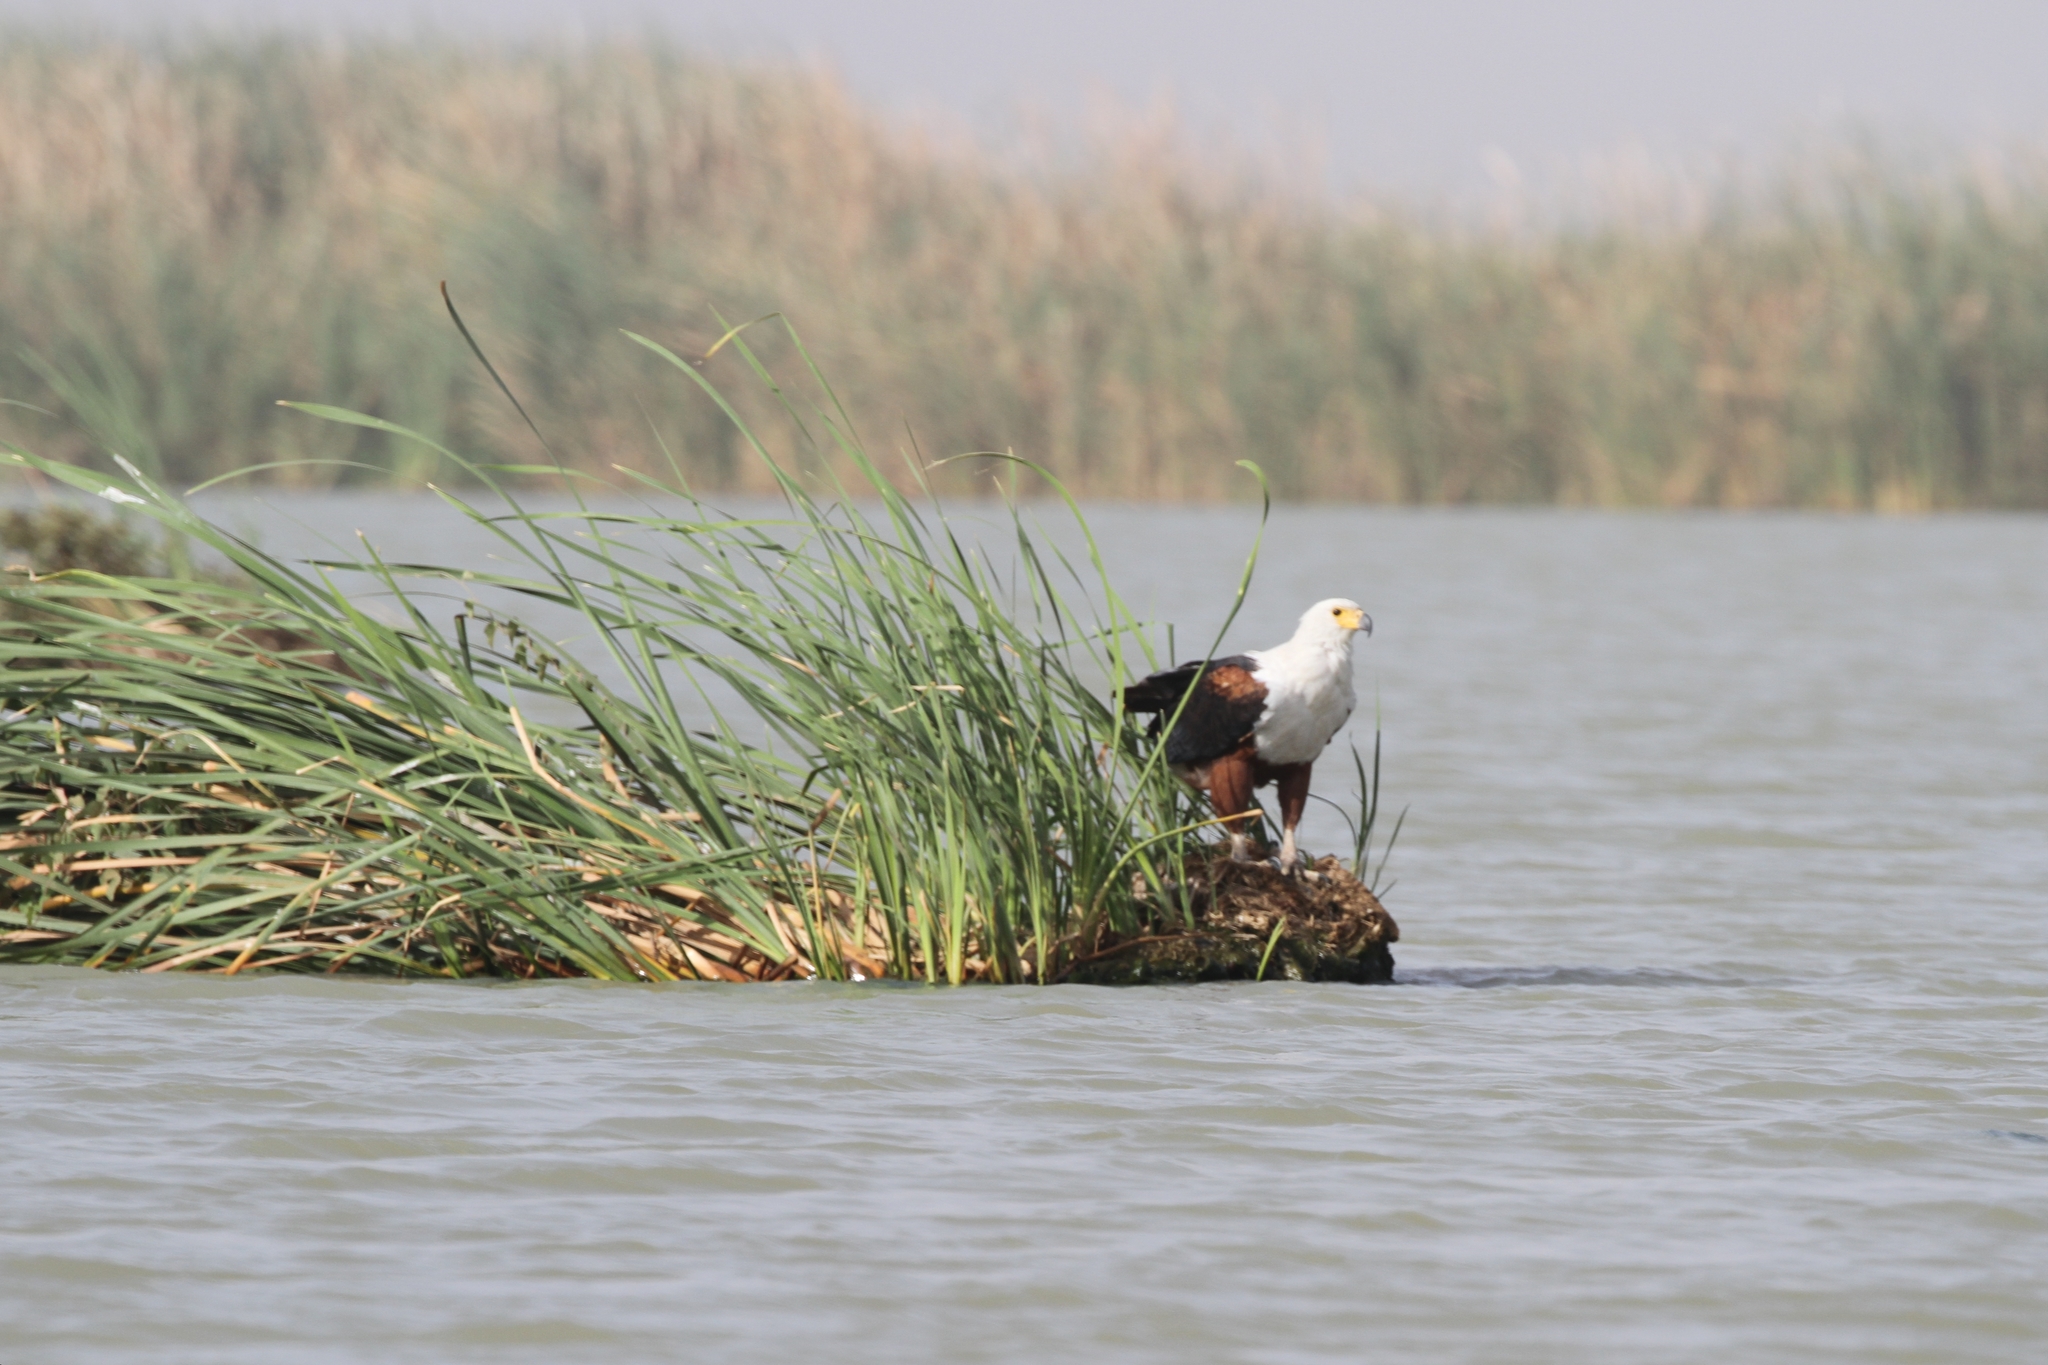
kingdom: Animalia
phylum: Chordata
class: Aves
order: Accipitriformes
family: Accipitridae
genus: Haliaeetus
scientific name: Haliaeetus vocifer
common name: African fish eagle
